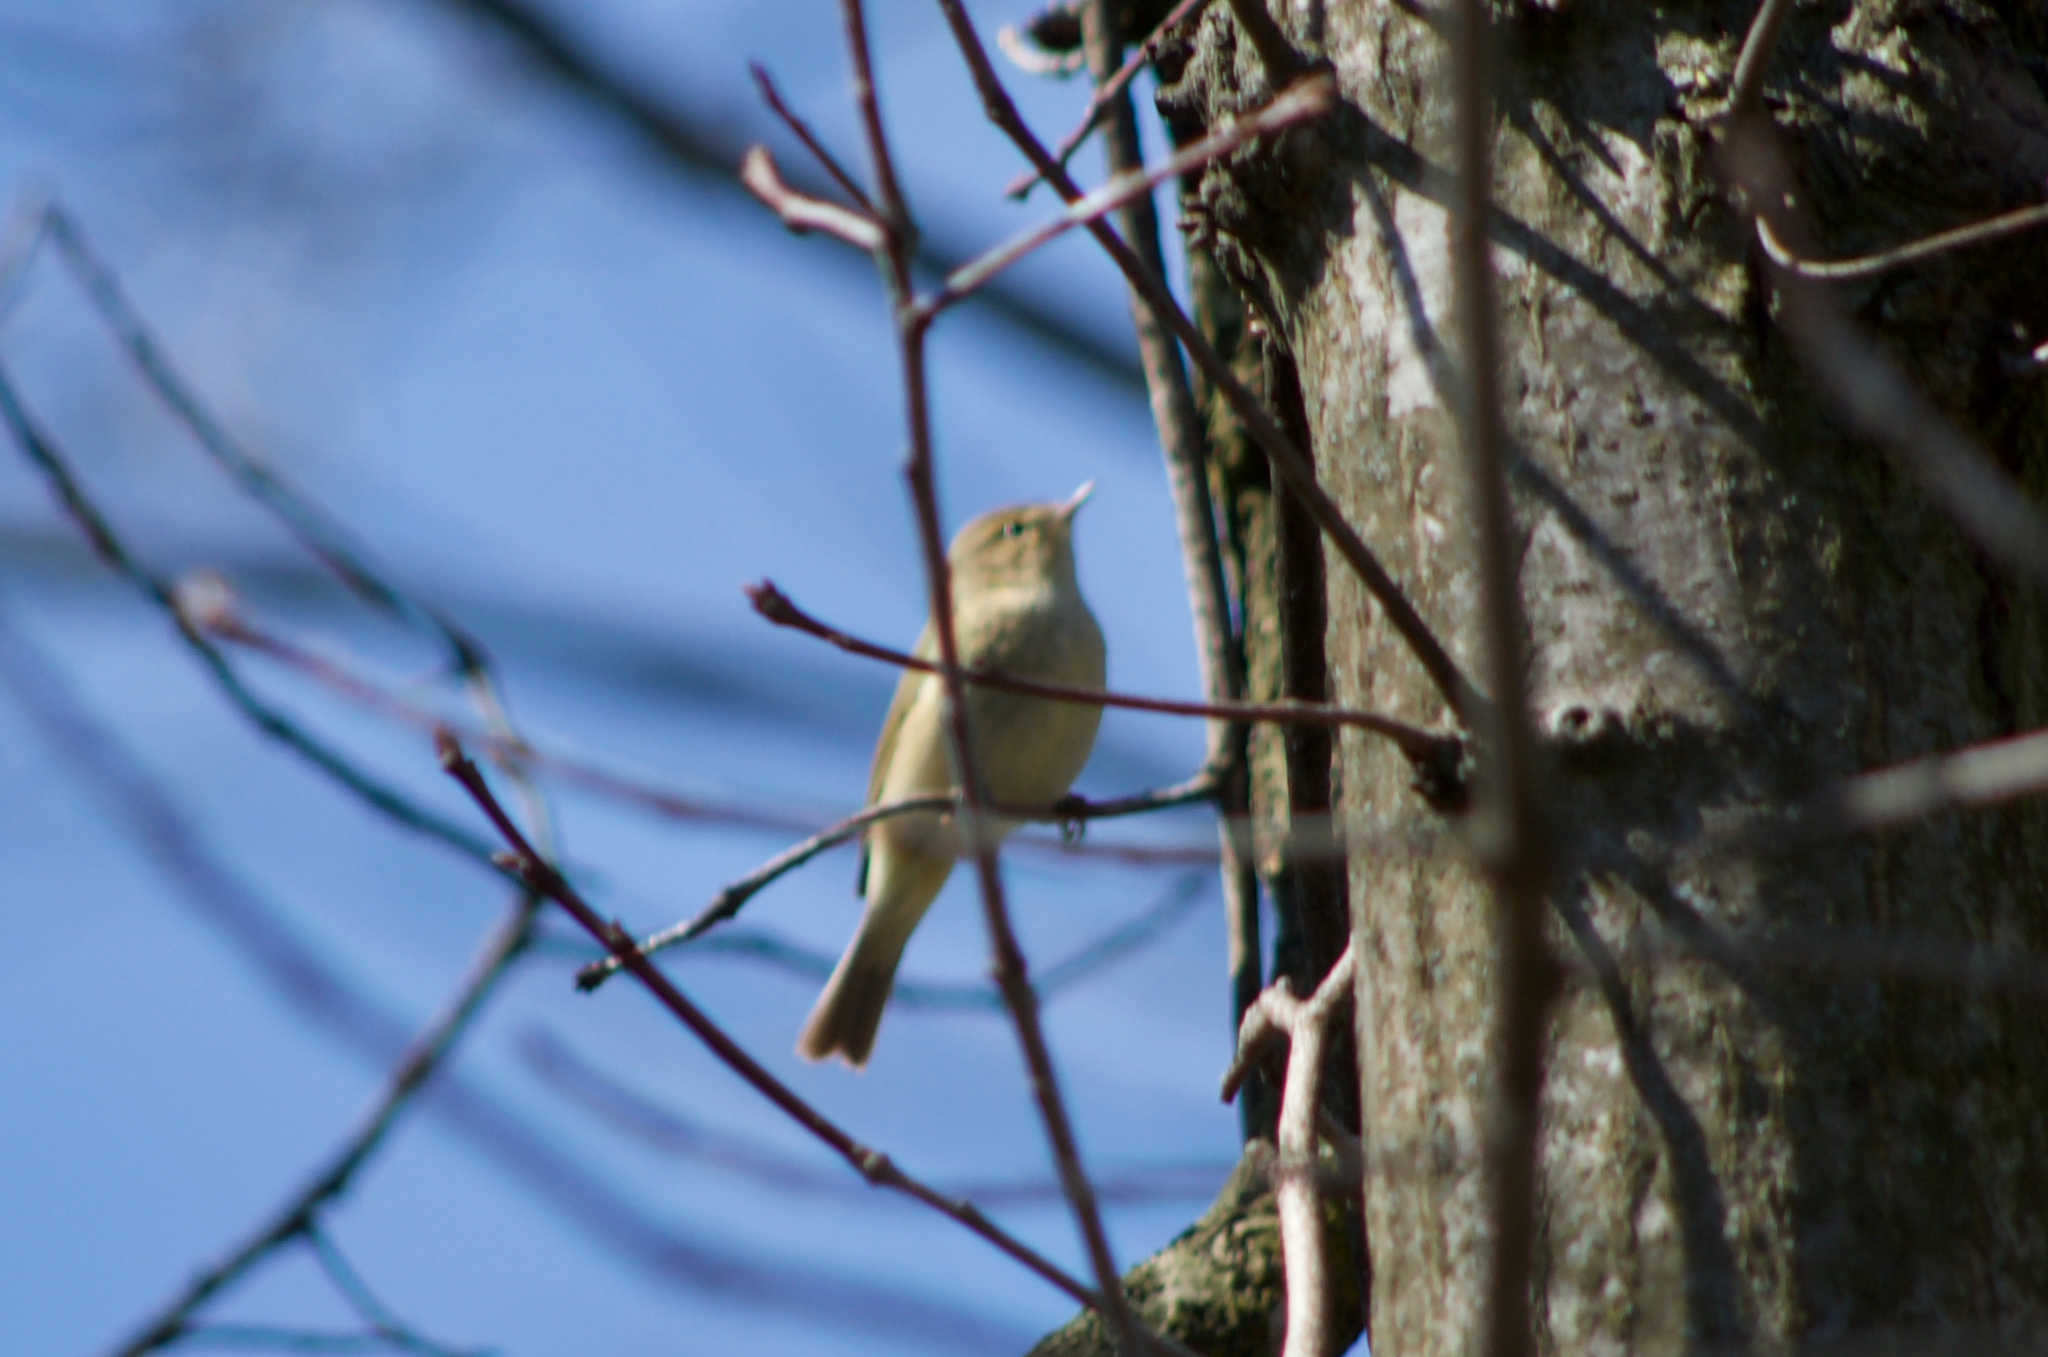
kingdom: Animalia
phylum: Chordata
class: Aves
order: Passeriformes
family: Phylloscopidae
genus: Phylloscopus
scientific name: Phylloscopus collybita
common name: Common chiffchaff
